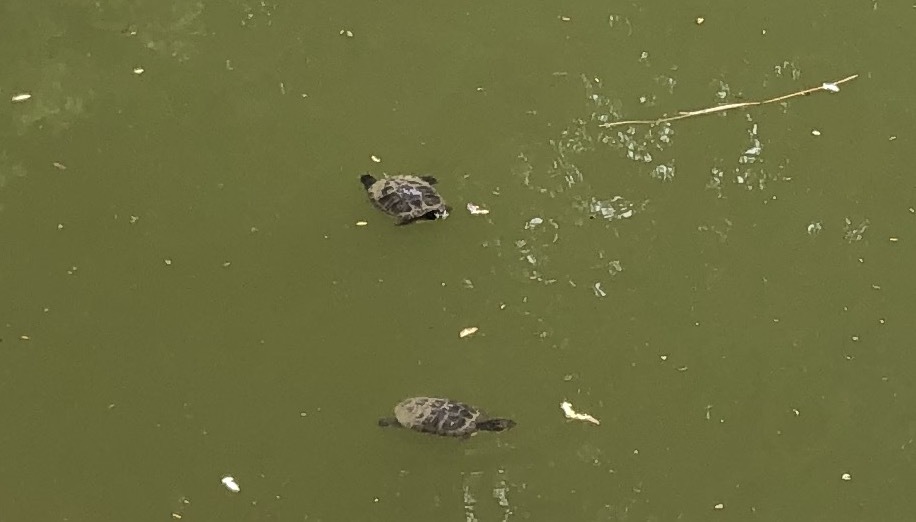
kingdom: Animalia
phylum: Chordata
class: Testudines
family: Emydidae
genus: Trachemys
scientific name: Trachemys scripta
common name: Slider
